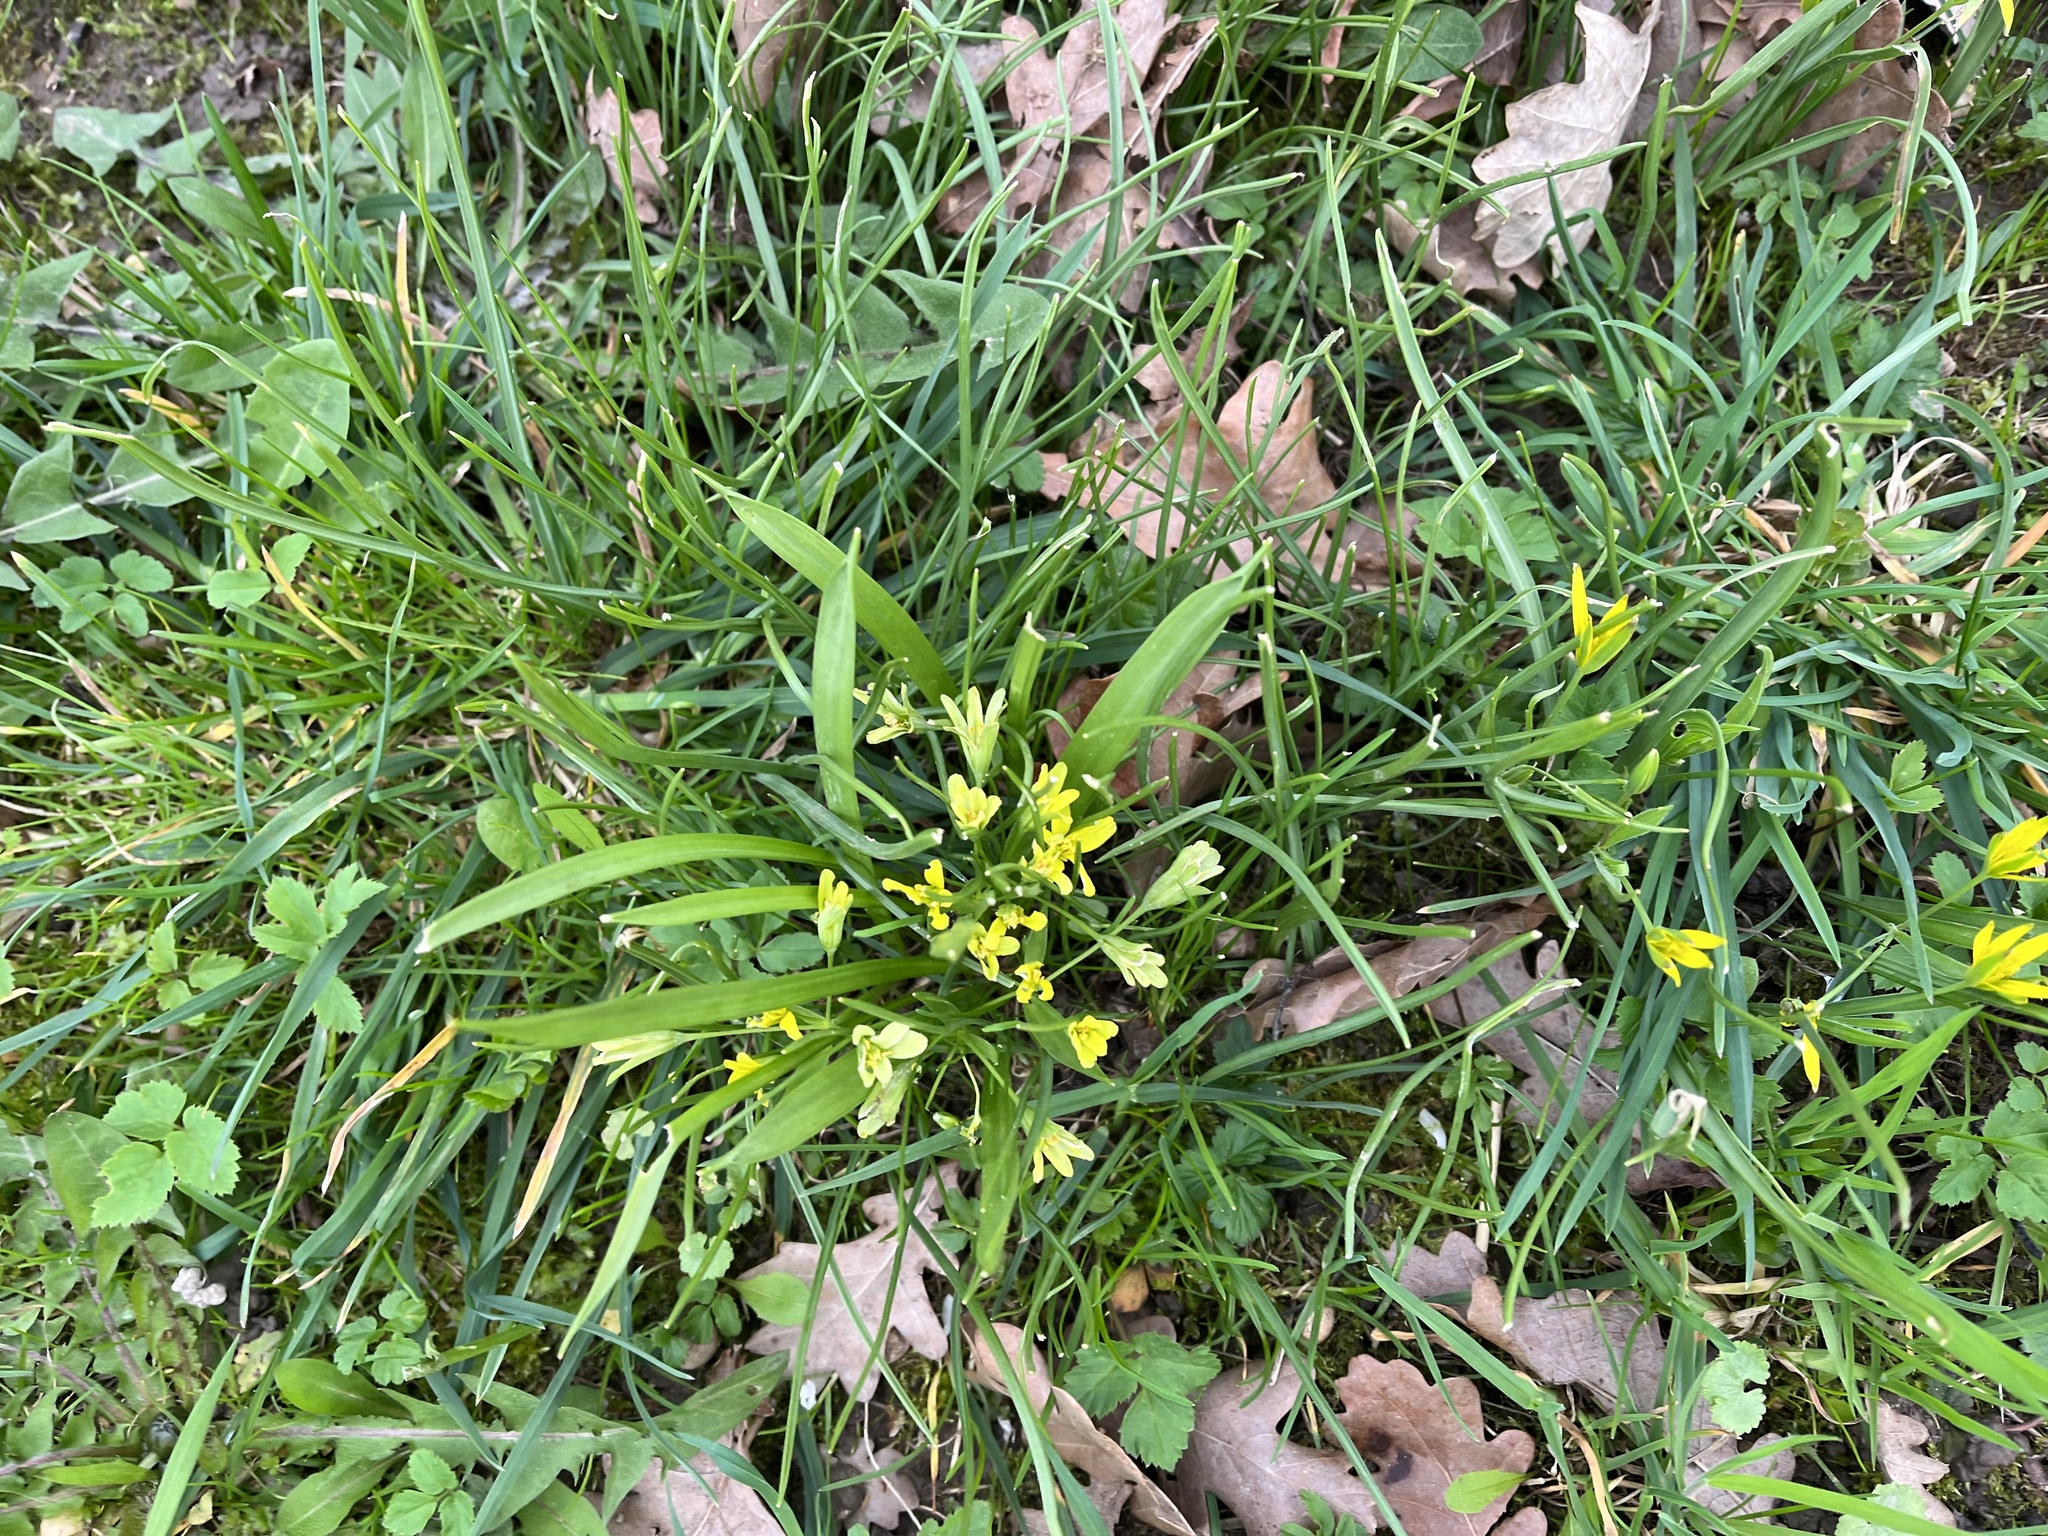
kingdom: Plantae
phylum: Tracheophyta
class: Liliopsida
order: Liliales
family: Liliaceae
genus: Gagea
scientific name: Gagea lutea
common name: Yellow star-of-bethlehem
